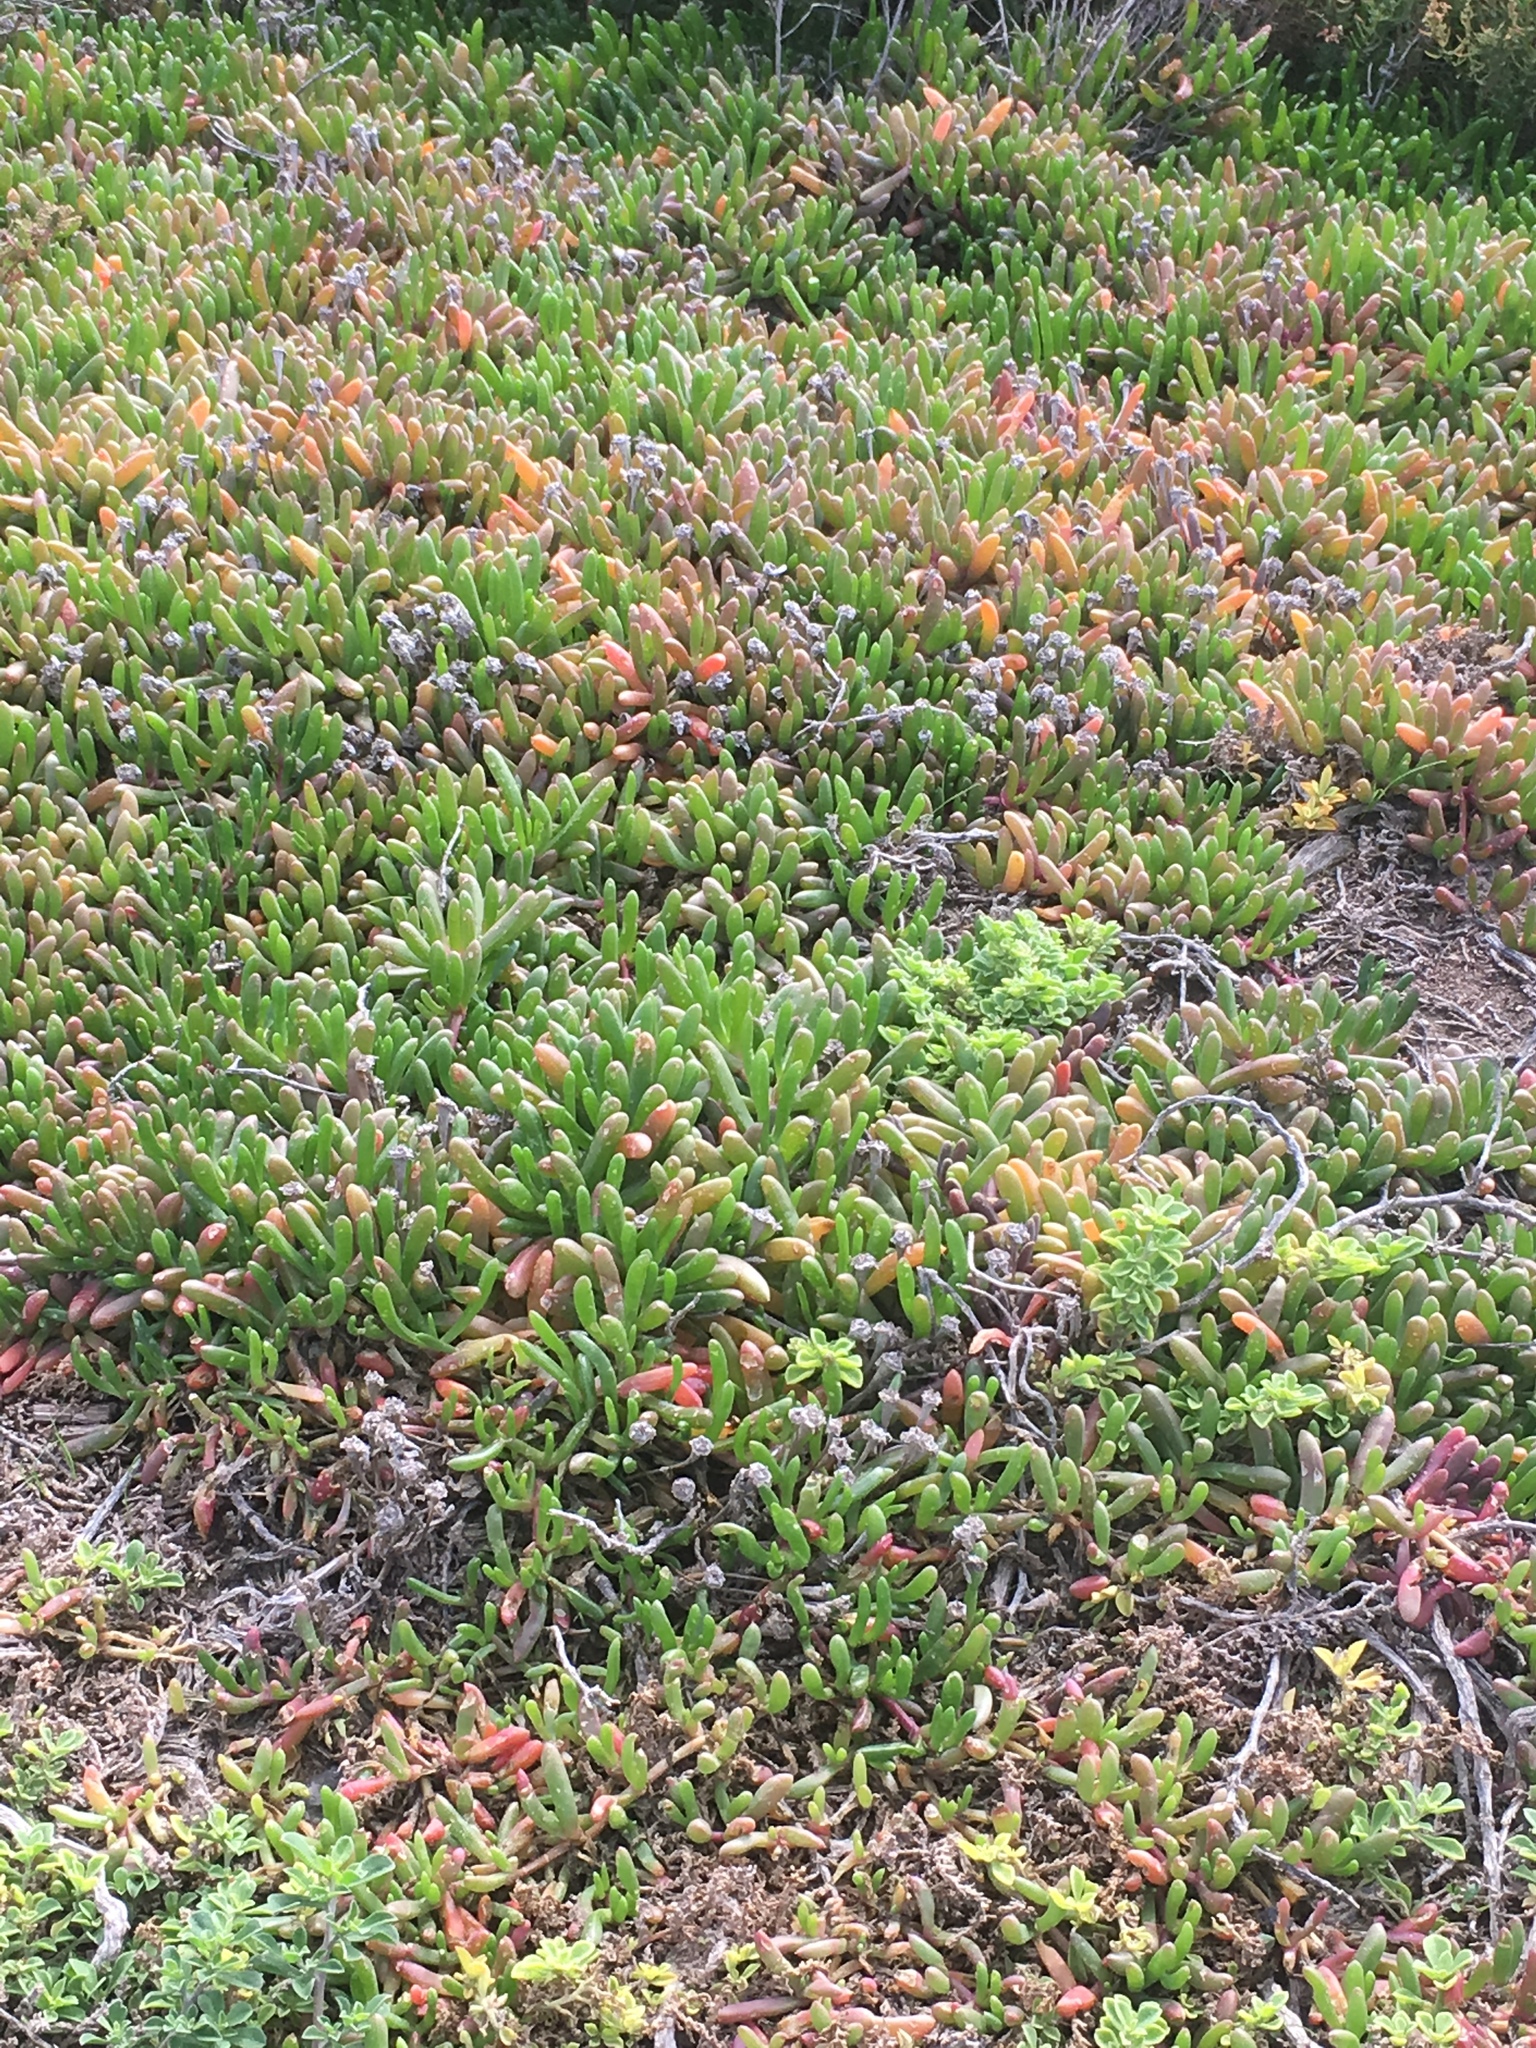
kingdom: Plantae
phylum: Tracheophyta
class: Magnoliopsida
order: Caryophyllales
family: Aizoaceae
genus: Disphyma
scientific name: Disphyma crassifolium
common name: Purple dewplant
